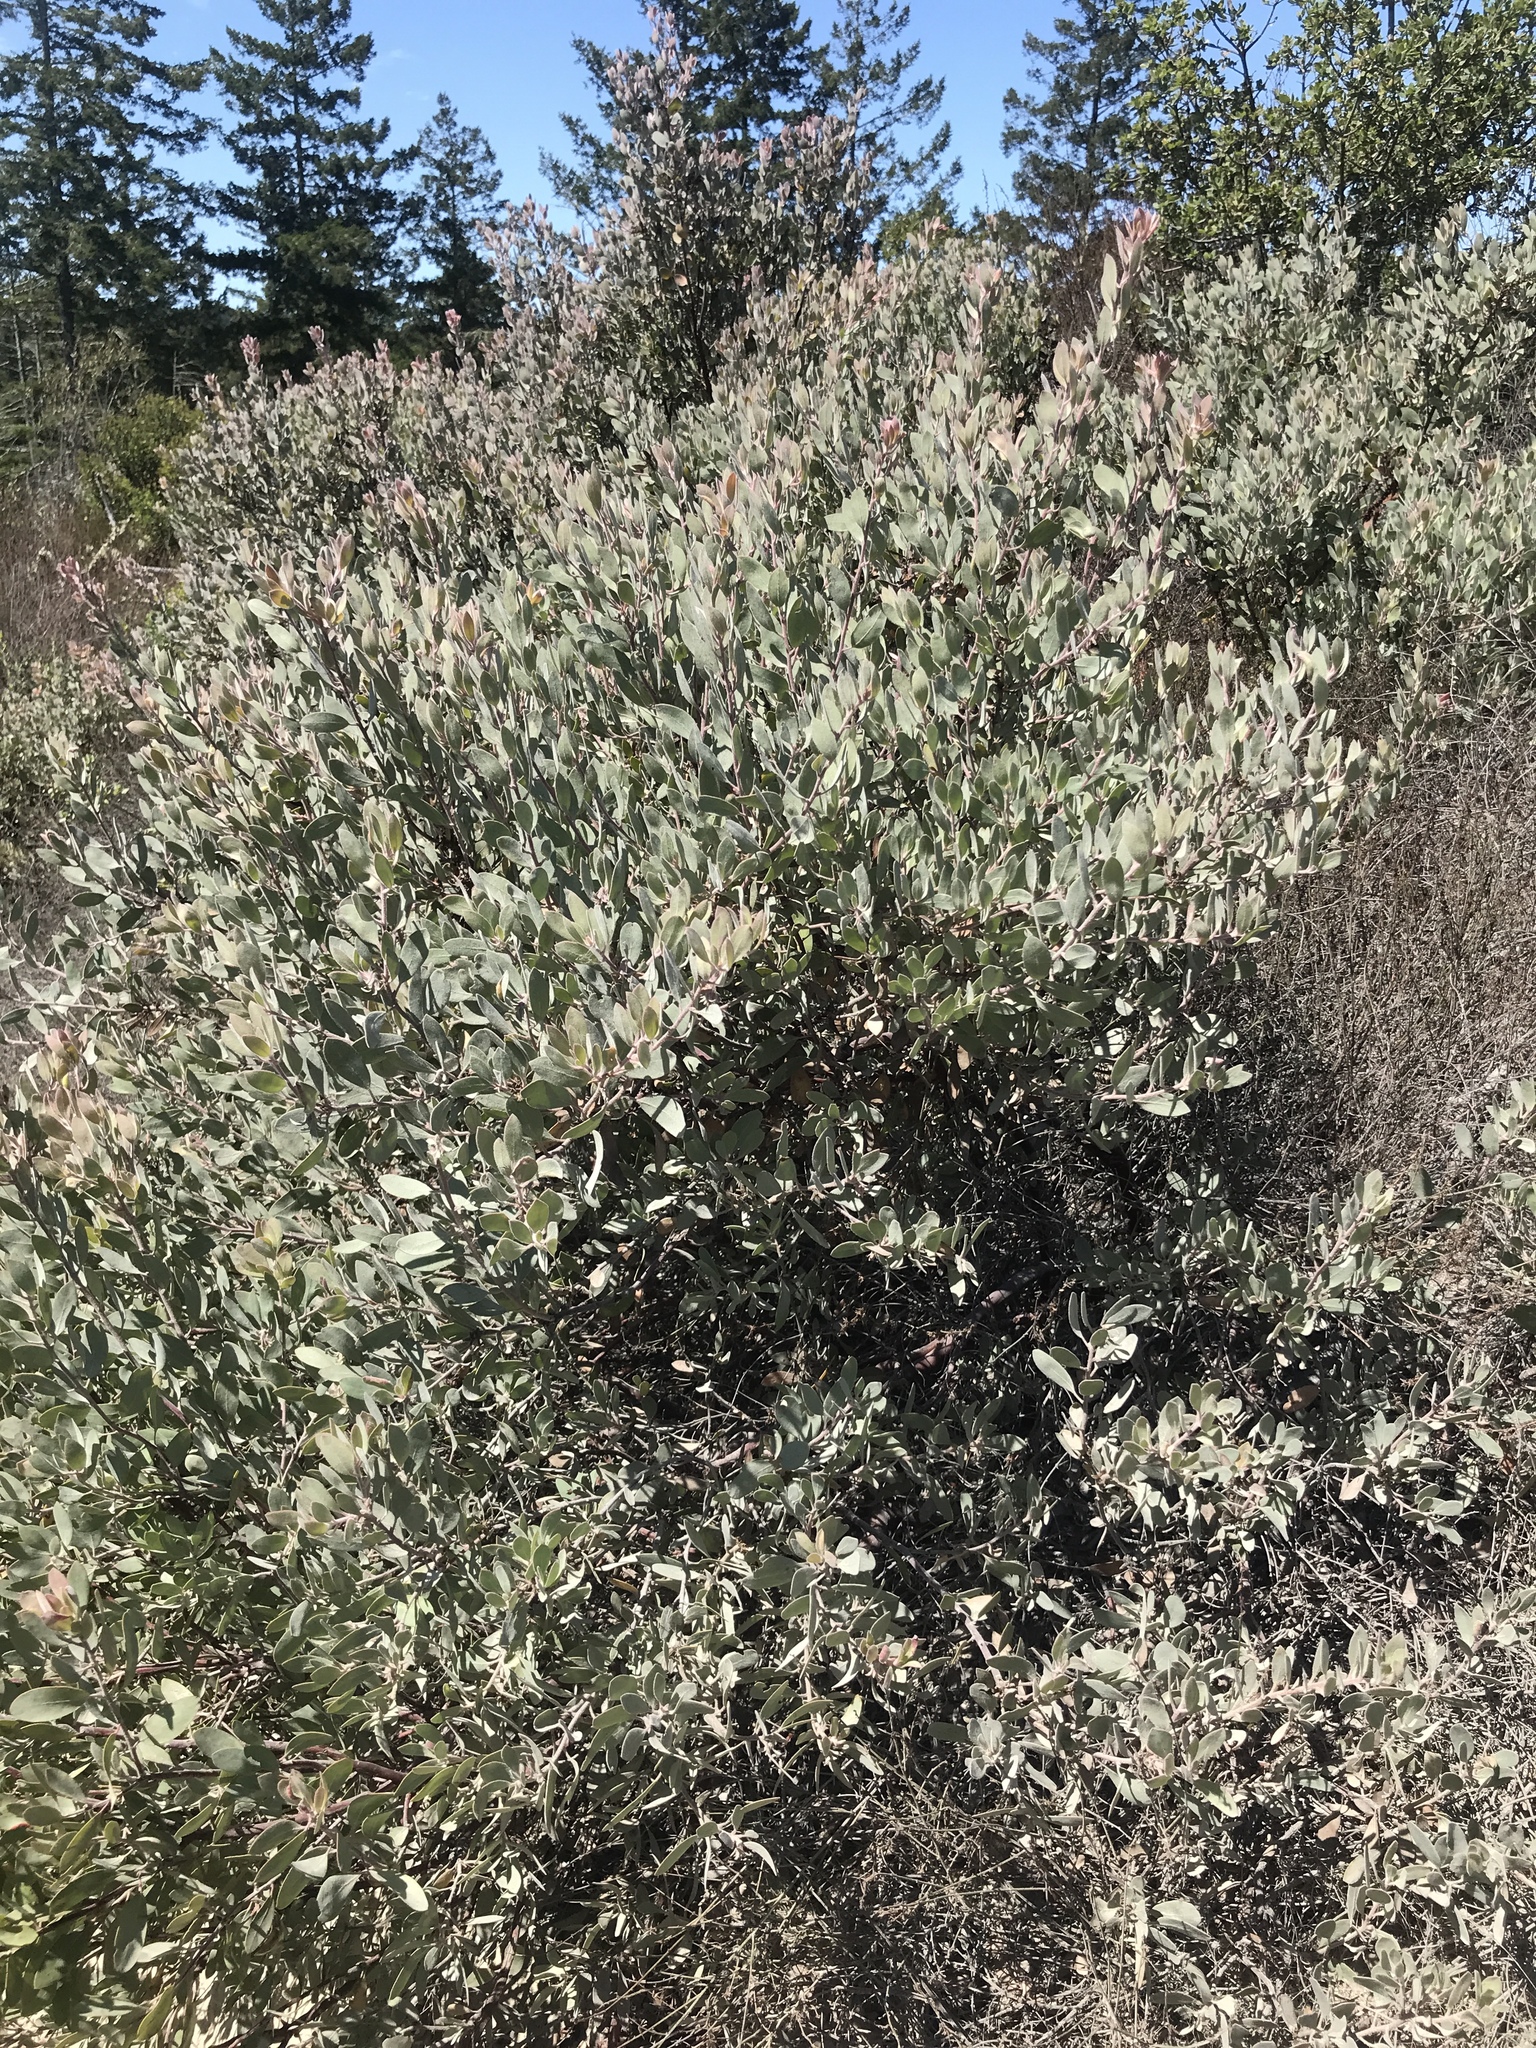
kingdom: Plantae
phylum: Tracheophyta
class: Magnoliopsida
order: Ericales
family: Ericaceae
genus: Arctostaphylos
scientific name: Arctostaphylos silvicola
